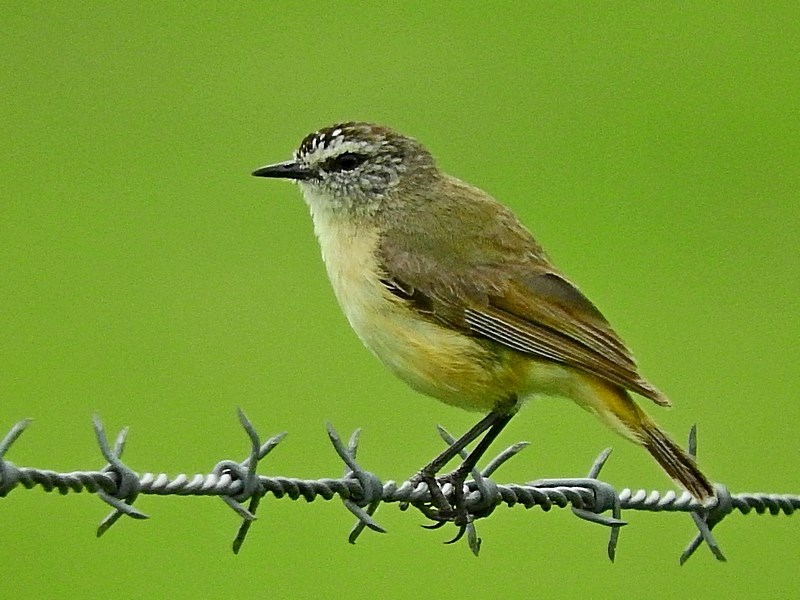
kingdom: Animalia
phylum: Chordata
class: Aves
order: Passeriformes
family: Acanthizidae
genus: Acanthiza
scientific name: Acanthiza chrysorrhoa
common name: Yellow-rumped thornbill
